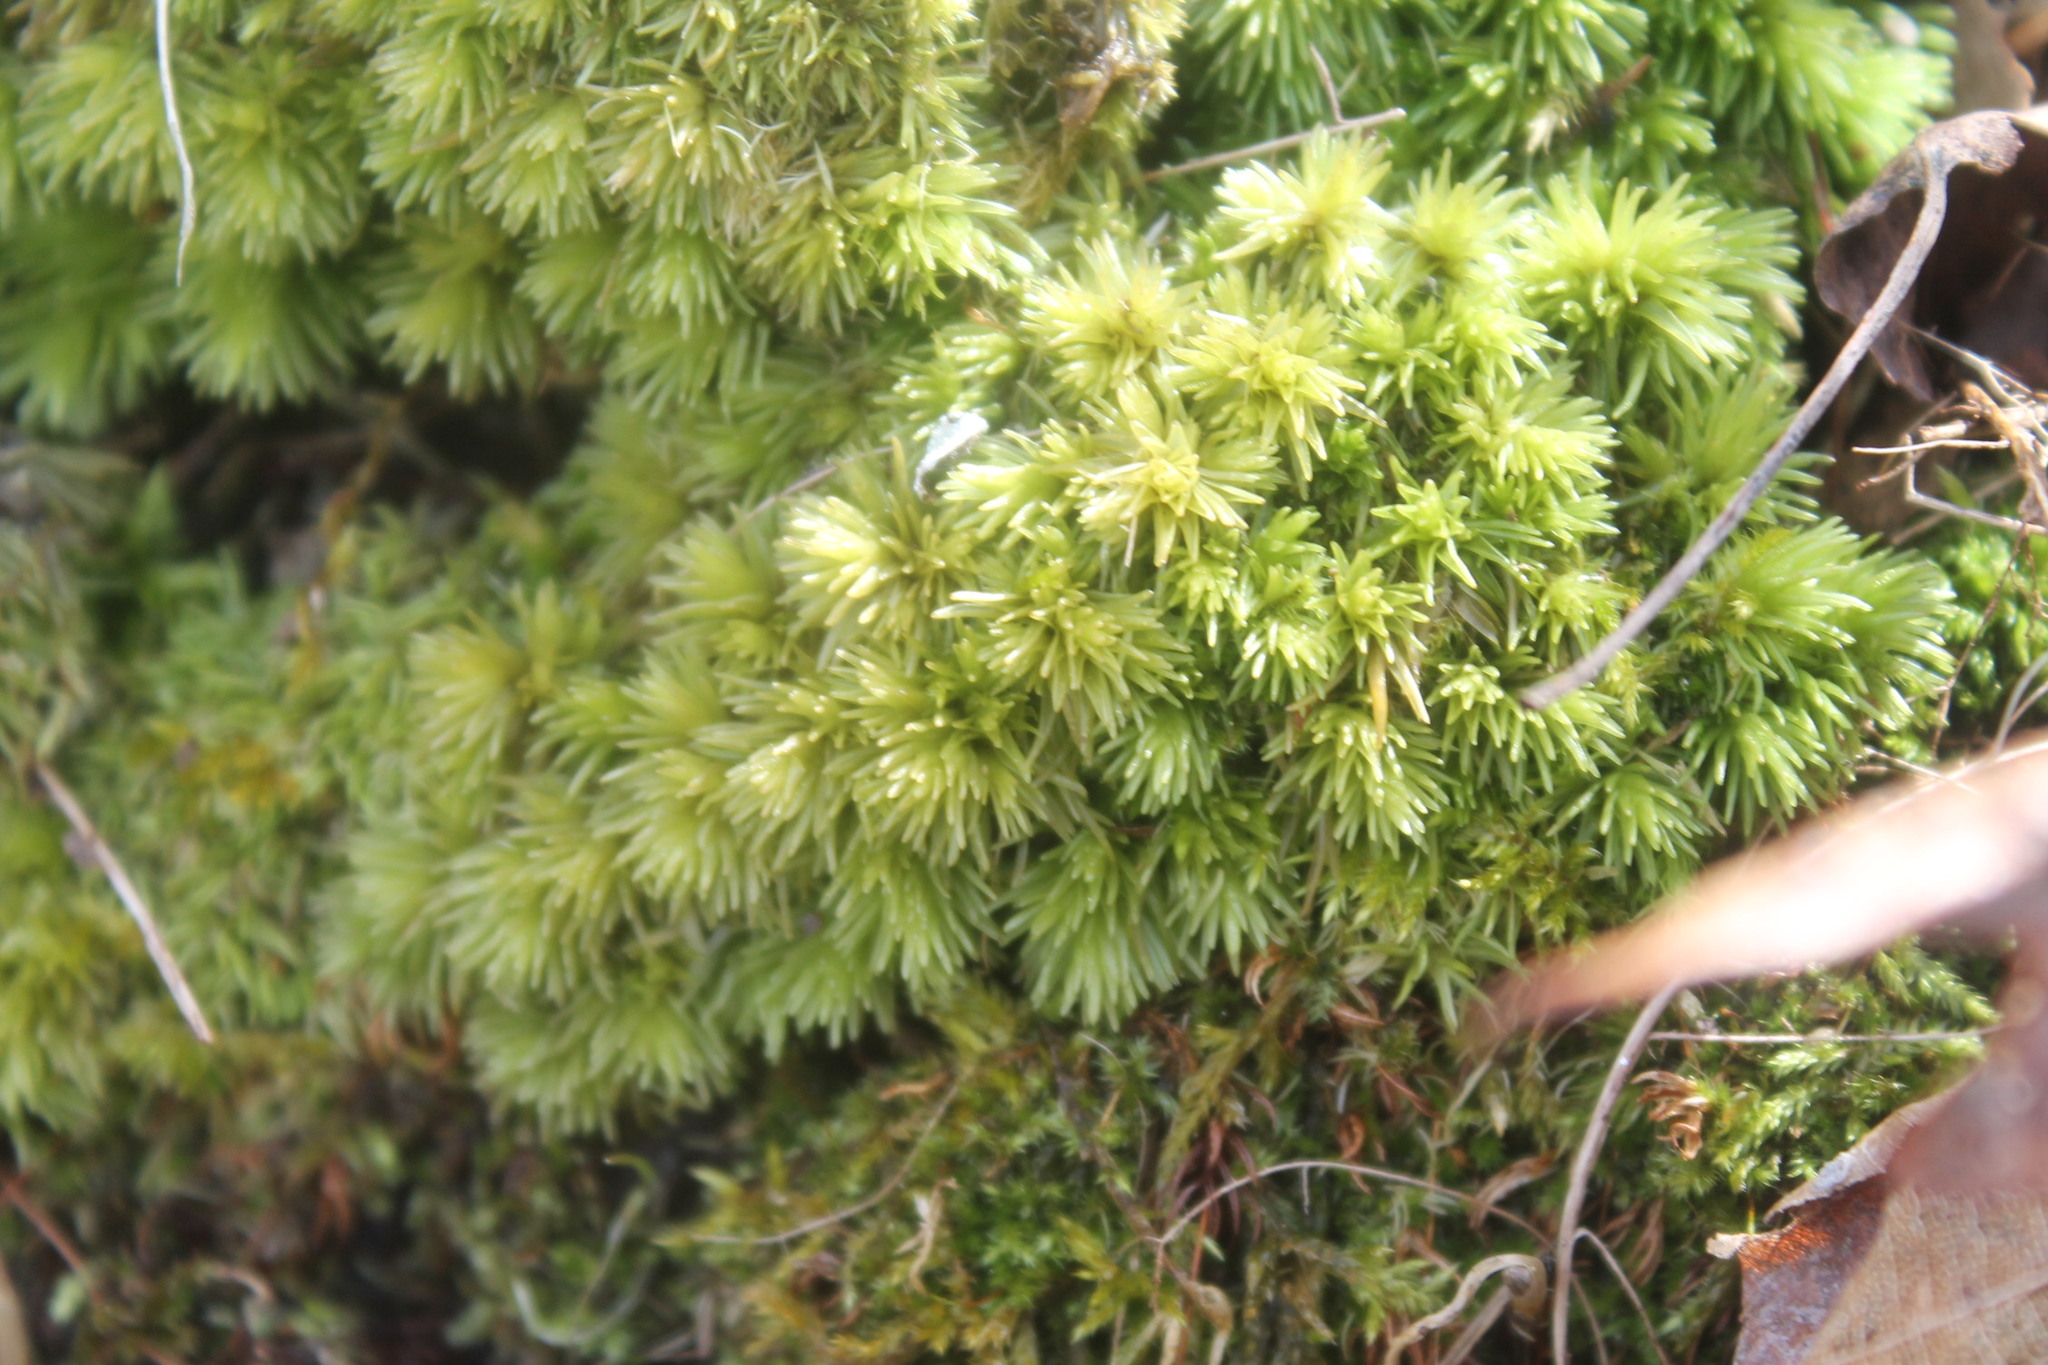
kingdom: Plantae
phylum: Bryophyta
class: Bryopsida
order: Dicranales
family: Leucobryaceae
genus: Leucobryum
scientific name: Leucobryum glaucum
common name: Large white-moss
